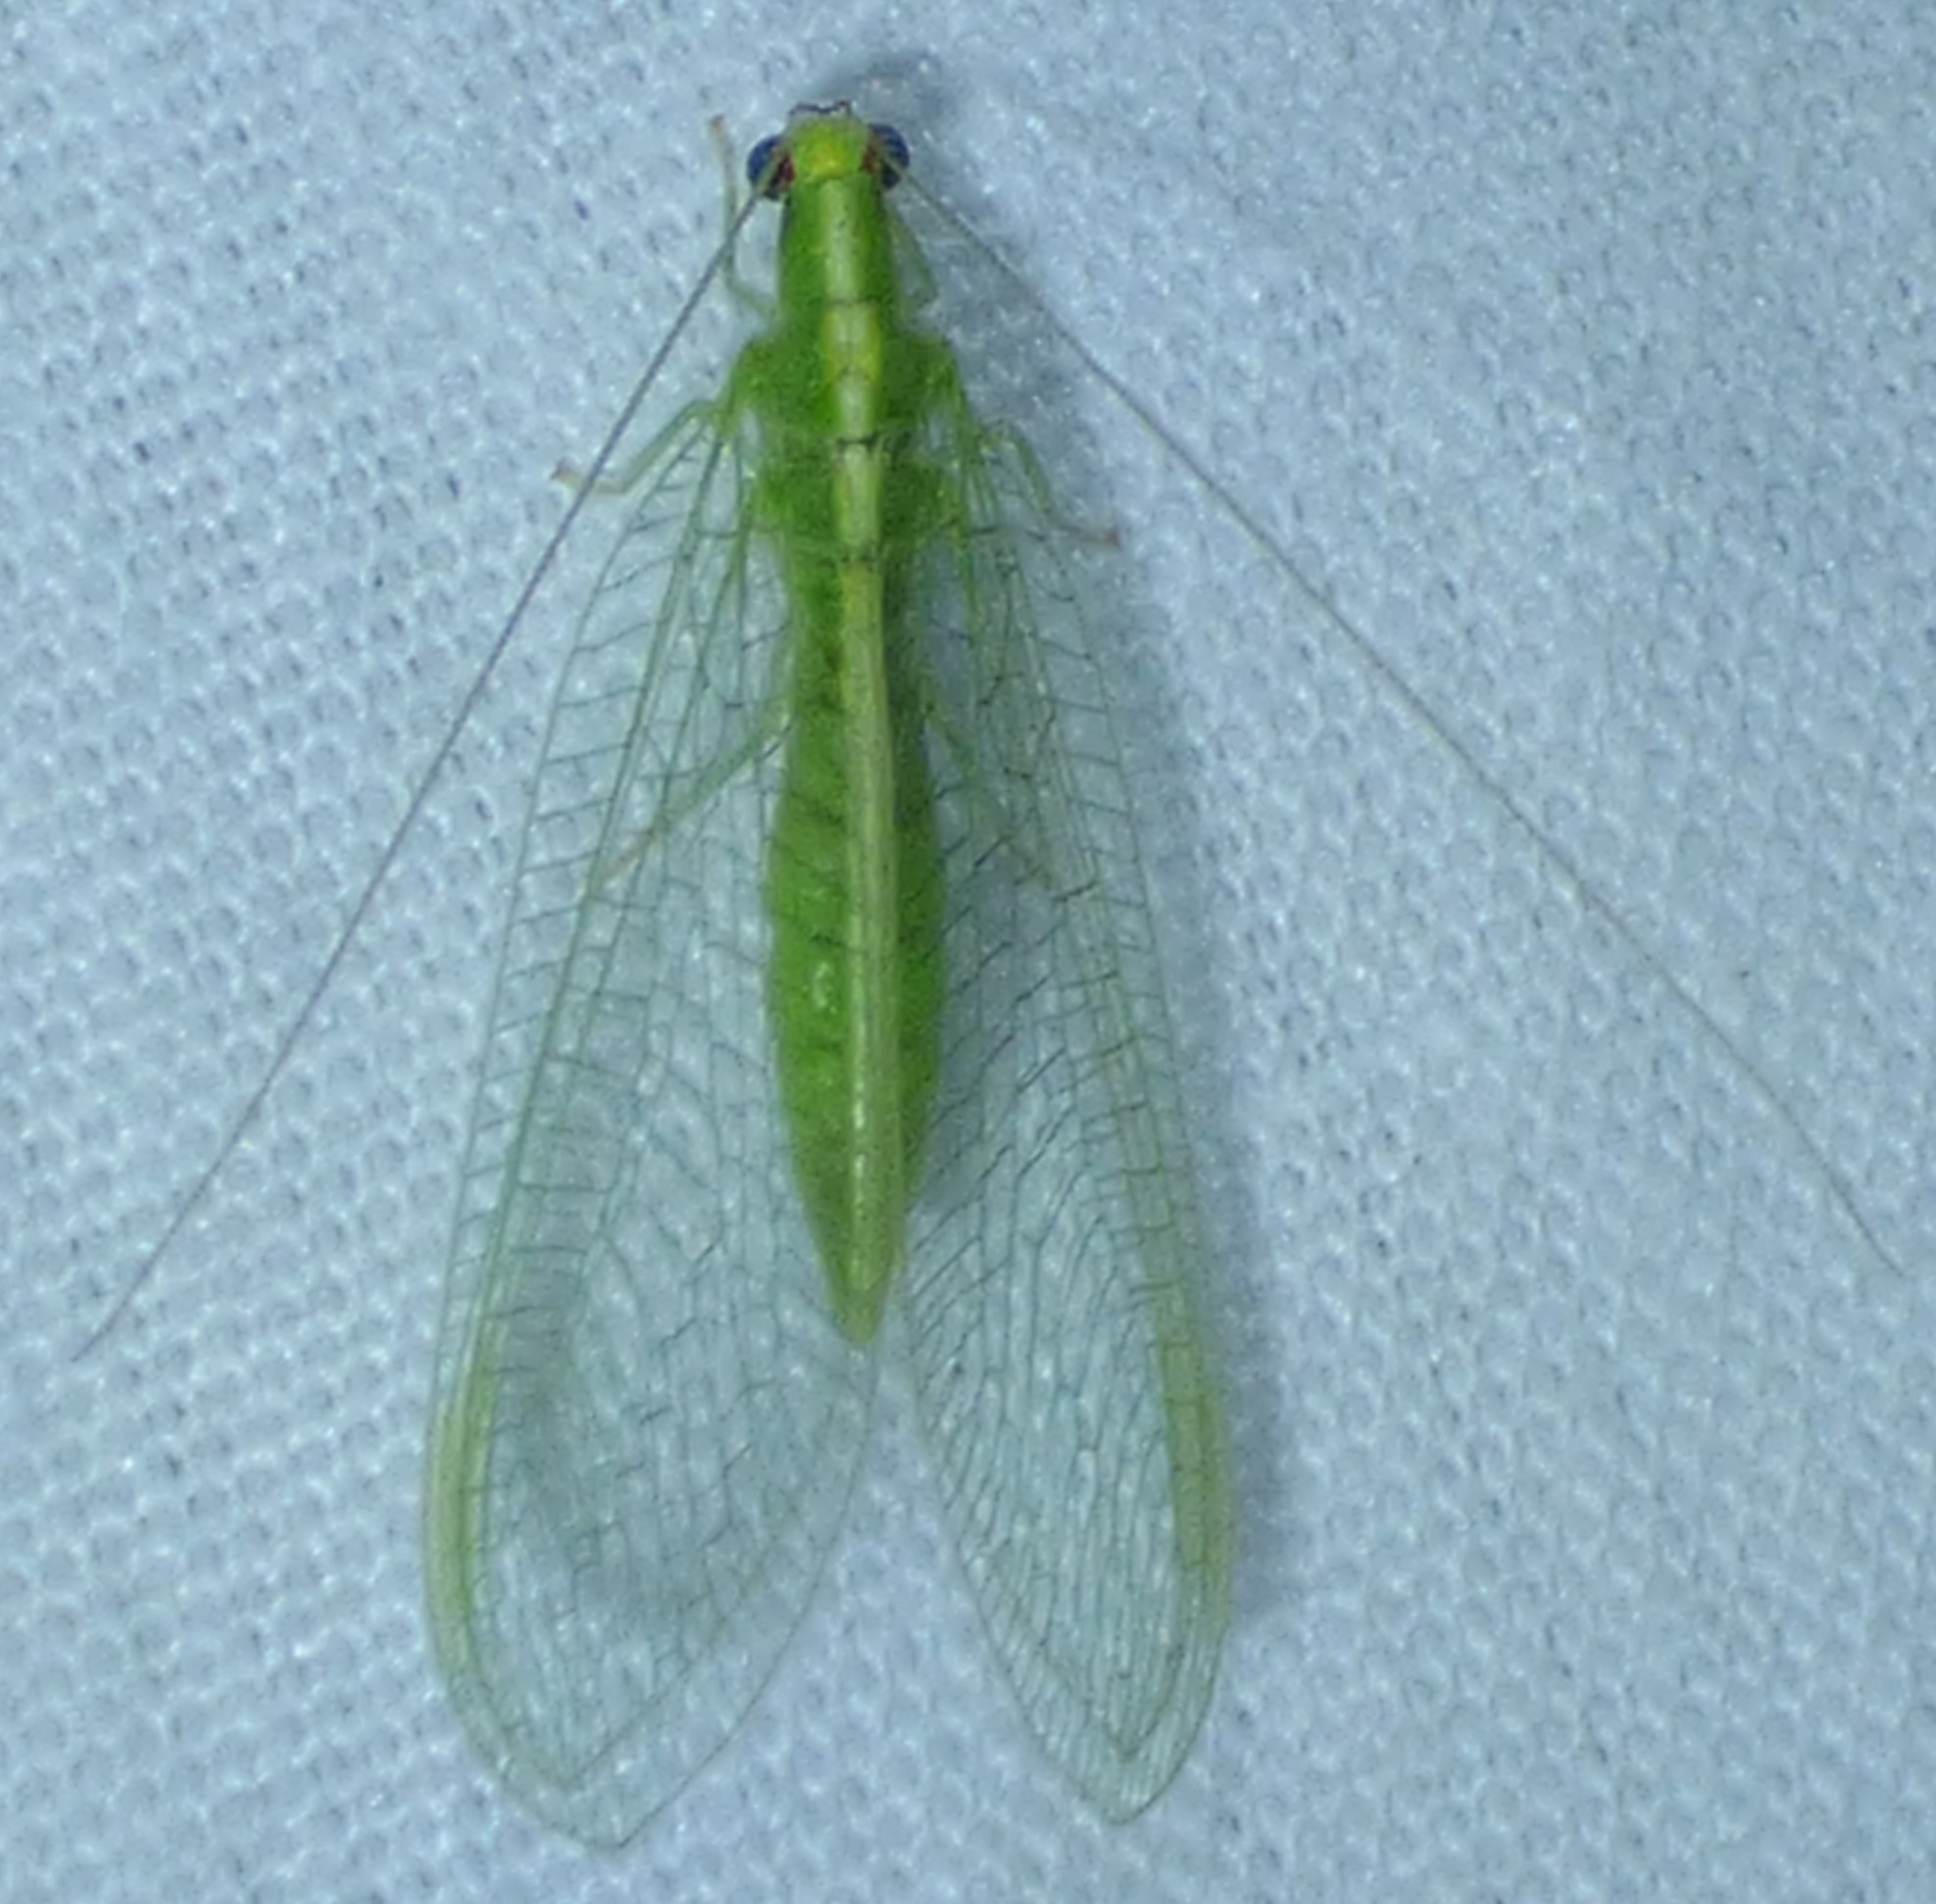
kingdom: Animalia
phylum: Arthropoda
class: Insecta
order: Neuroptera
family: Chrysopidae
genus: Chrysoperla
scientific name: Chrysoperla
